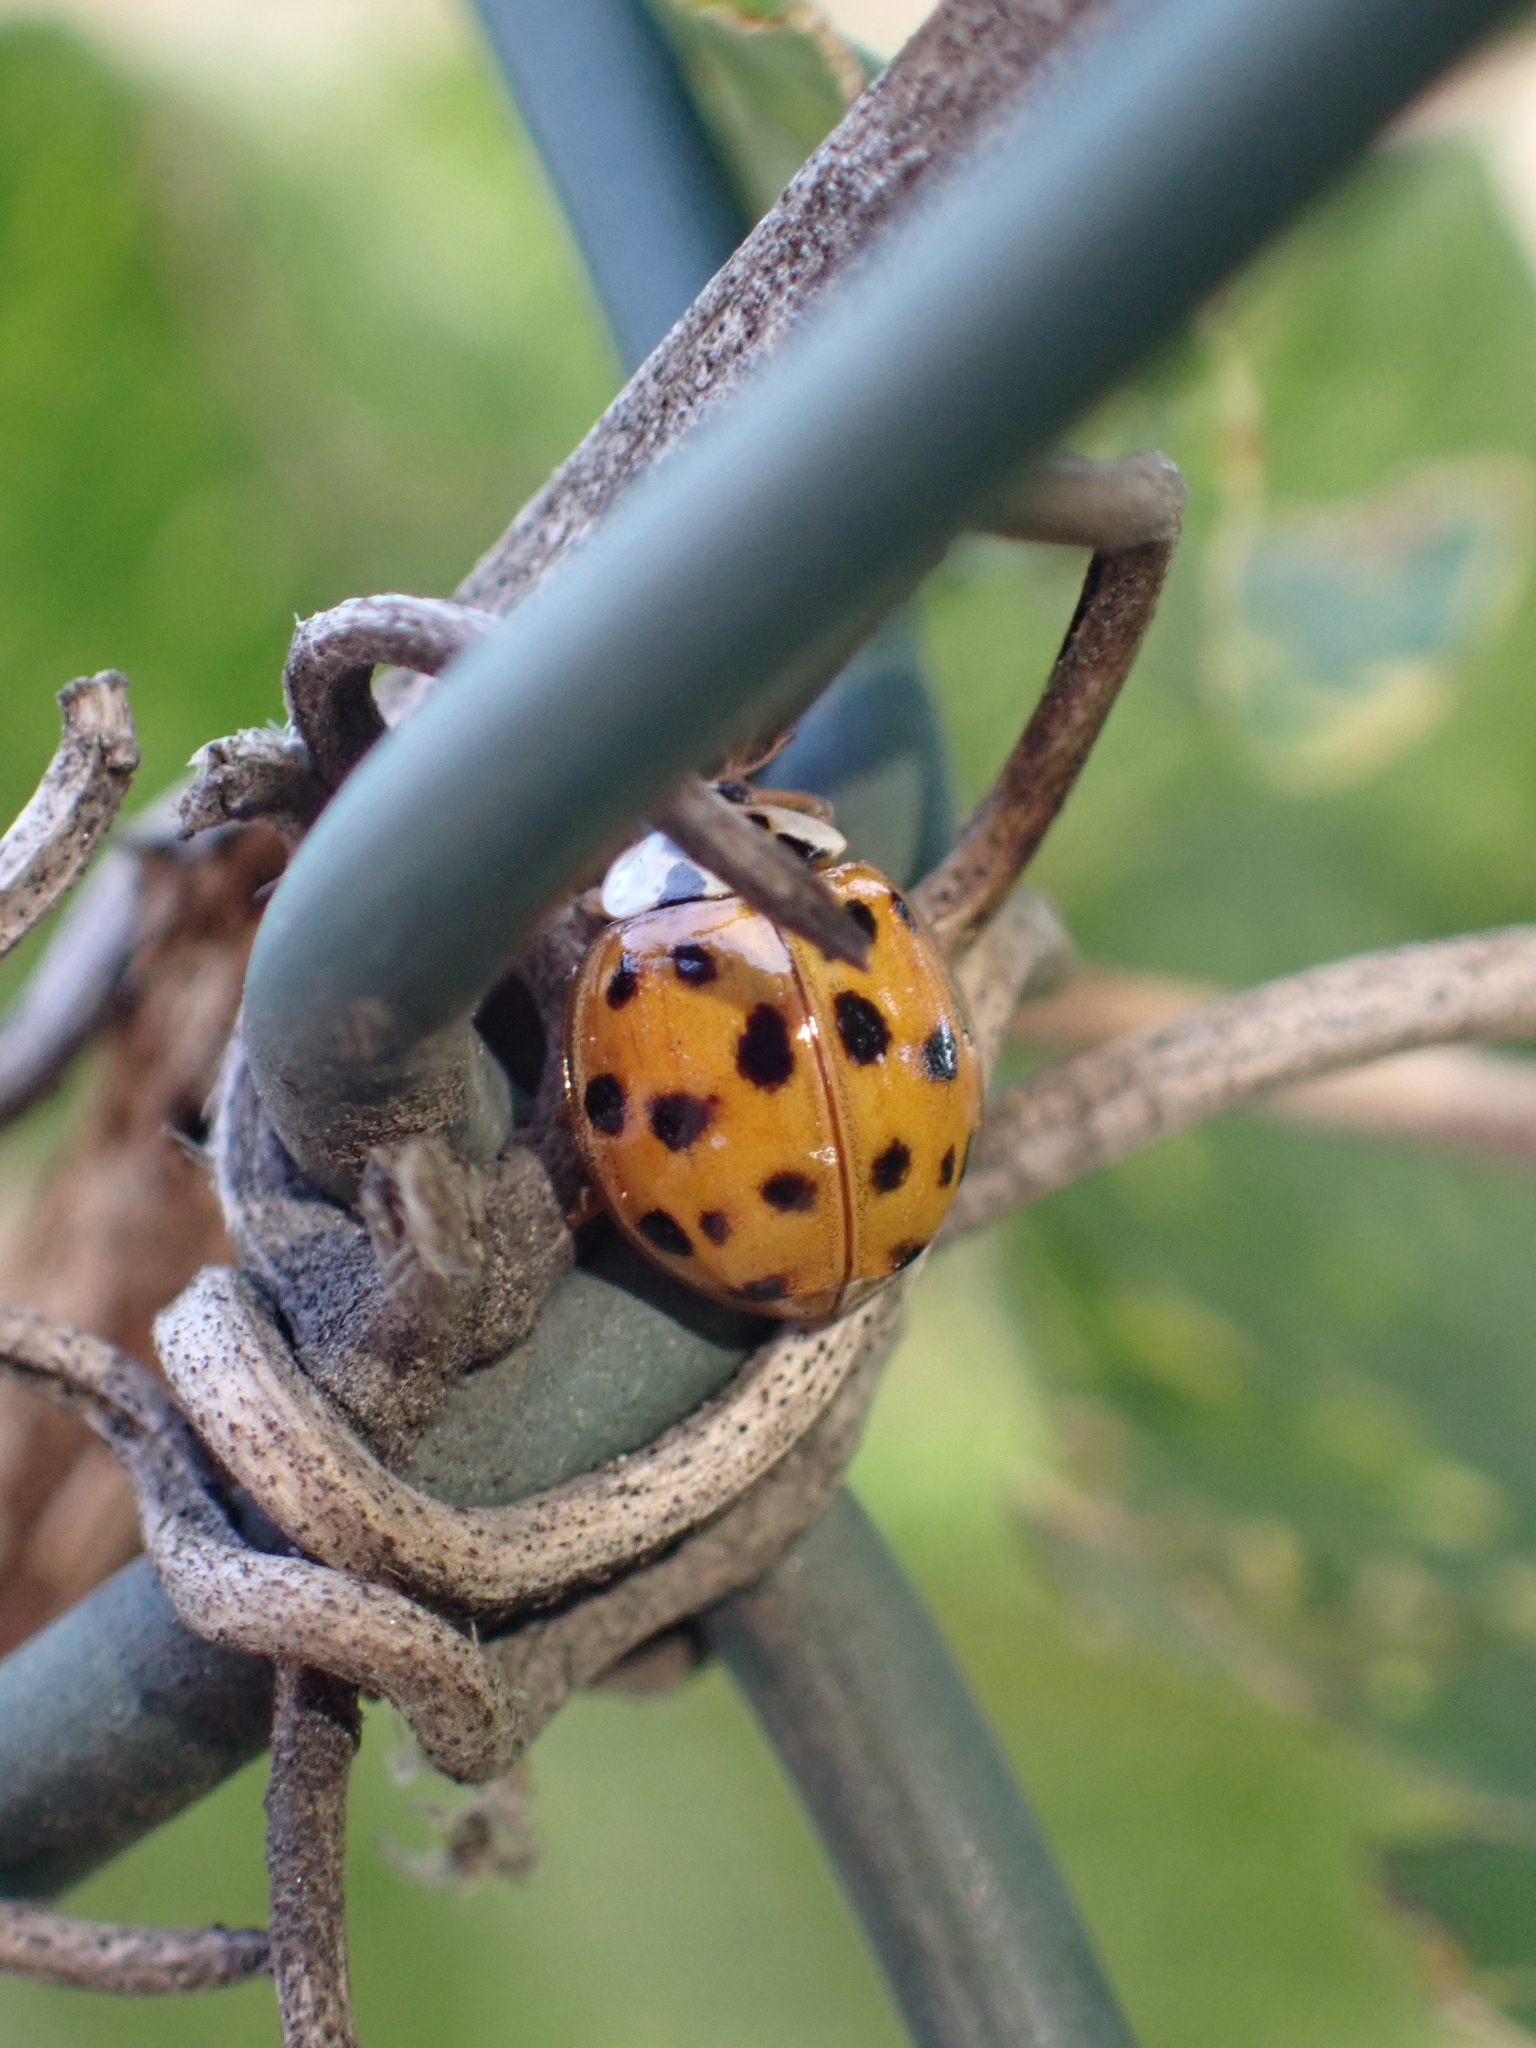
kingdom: Animalia
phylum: Arthropoda
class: Insecta
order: Coleoptera
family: Coccinellidae
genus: Harmonia
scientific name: Harmonia axyridis
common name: Harlequin ladybird
